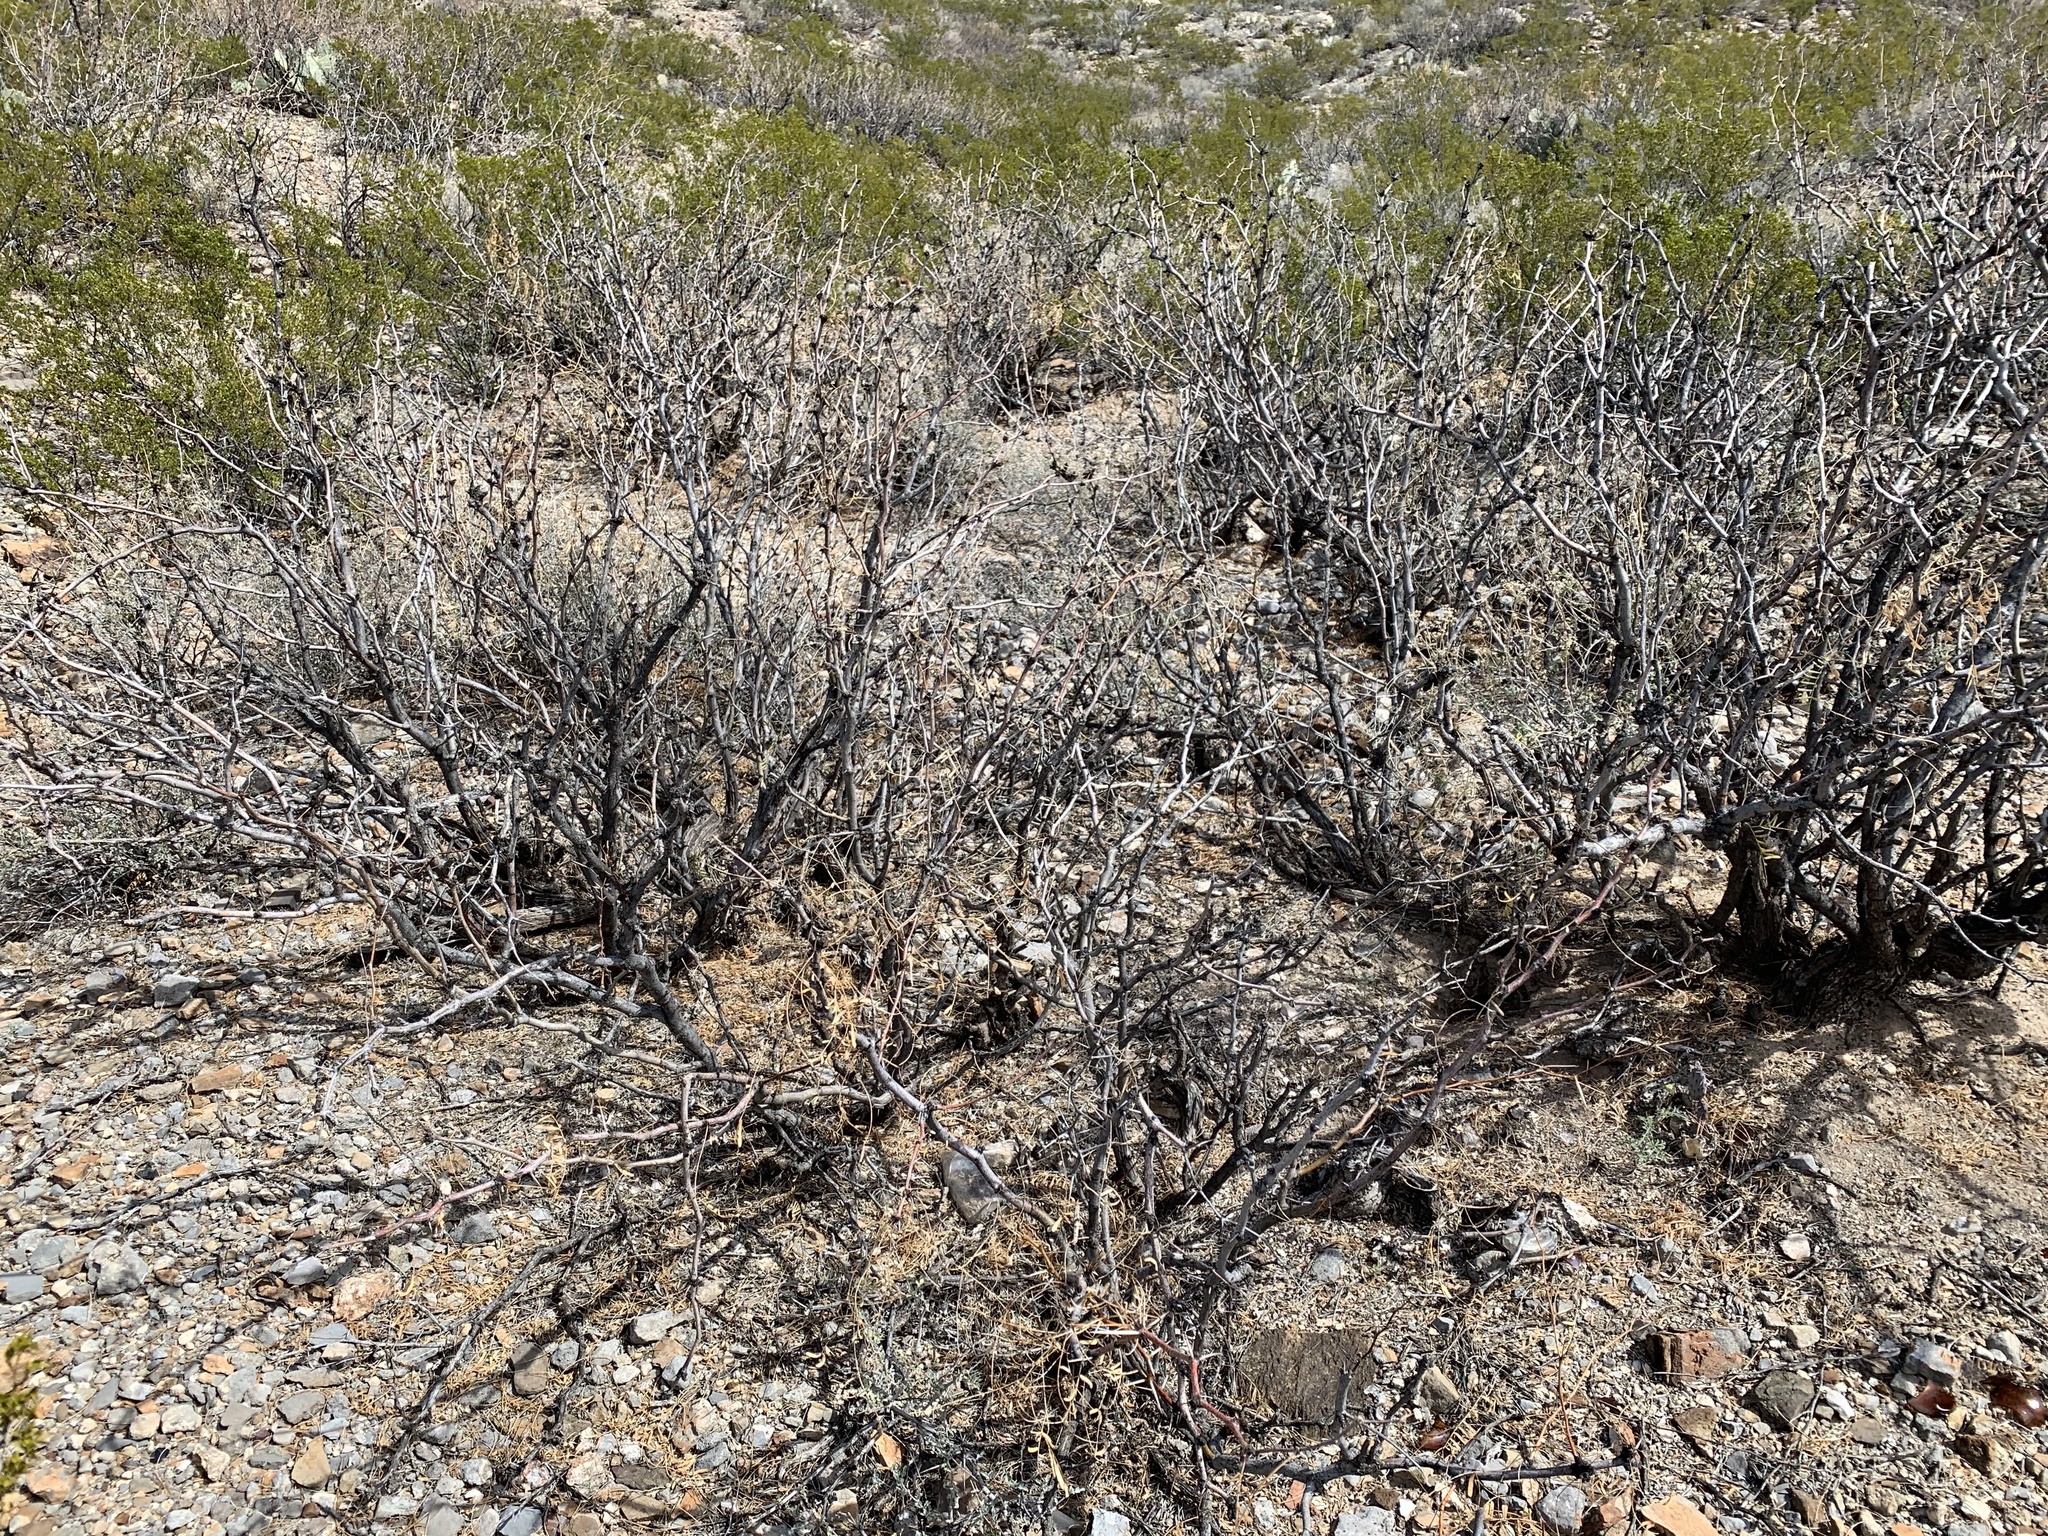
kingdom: Plantae
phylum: Tracheophyta
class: Magnoliopsida
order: Fabales
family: Fabaceae
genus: Prosopis
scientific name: Prosopis glandulosa
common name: Honey mesquite
